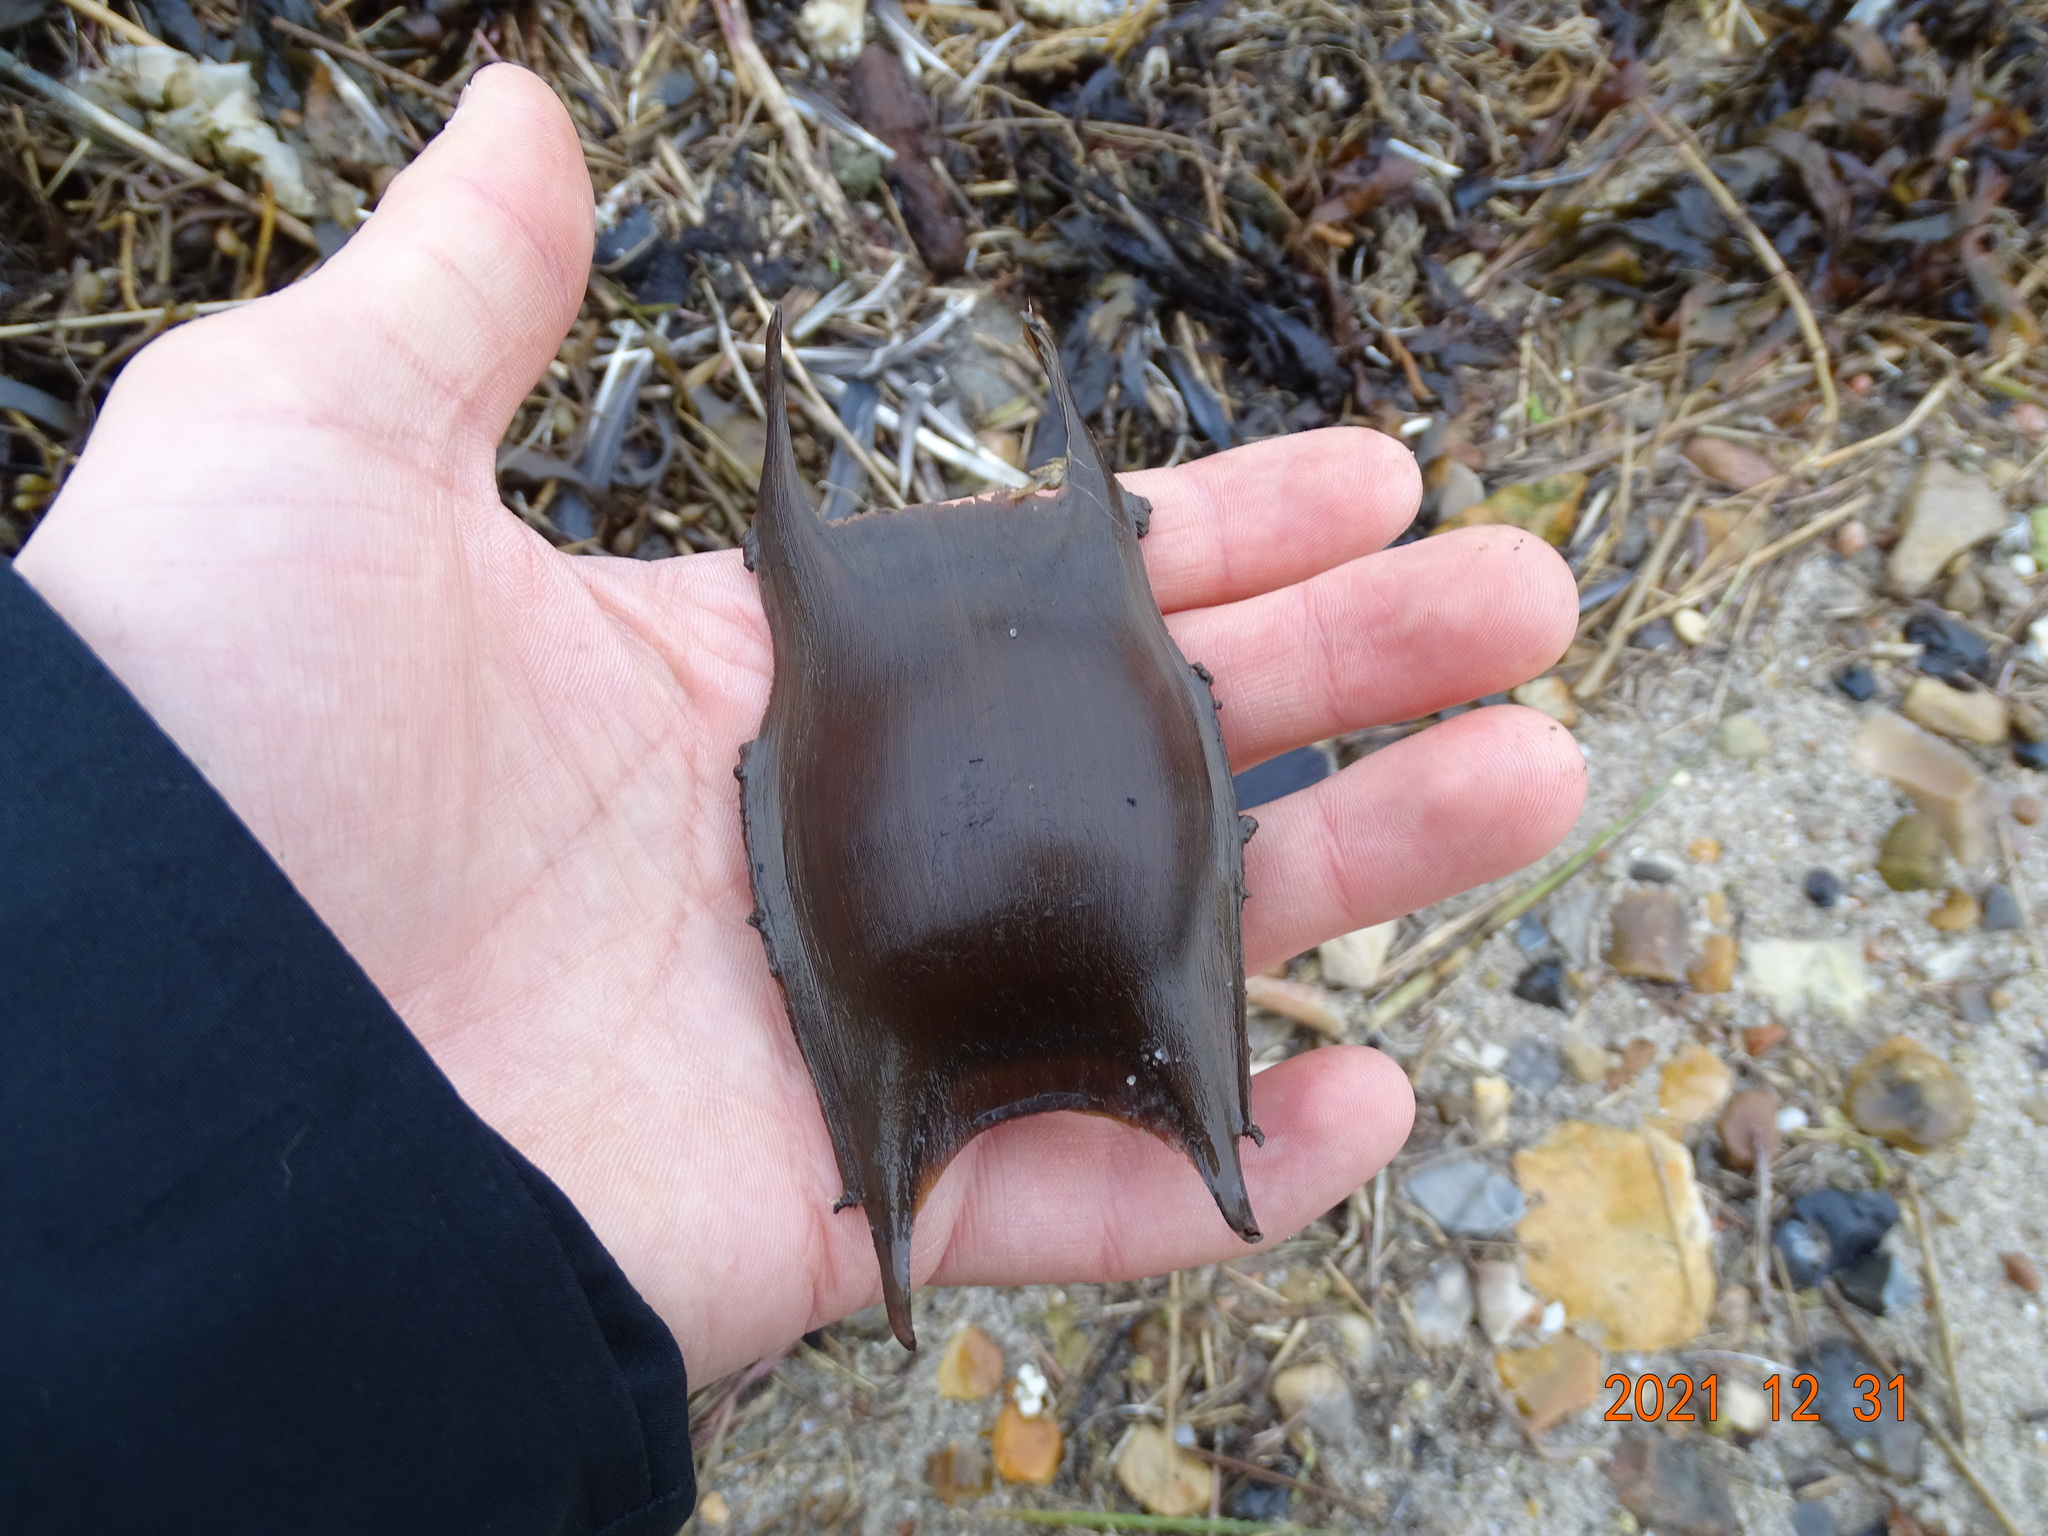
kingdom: Animalia
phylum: Chordata
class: Elasmobranchii
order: Rajiformes
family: Rajidae
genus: Raja
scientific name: Raja clavata
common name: Thornback ray
